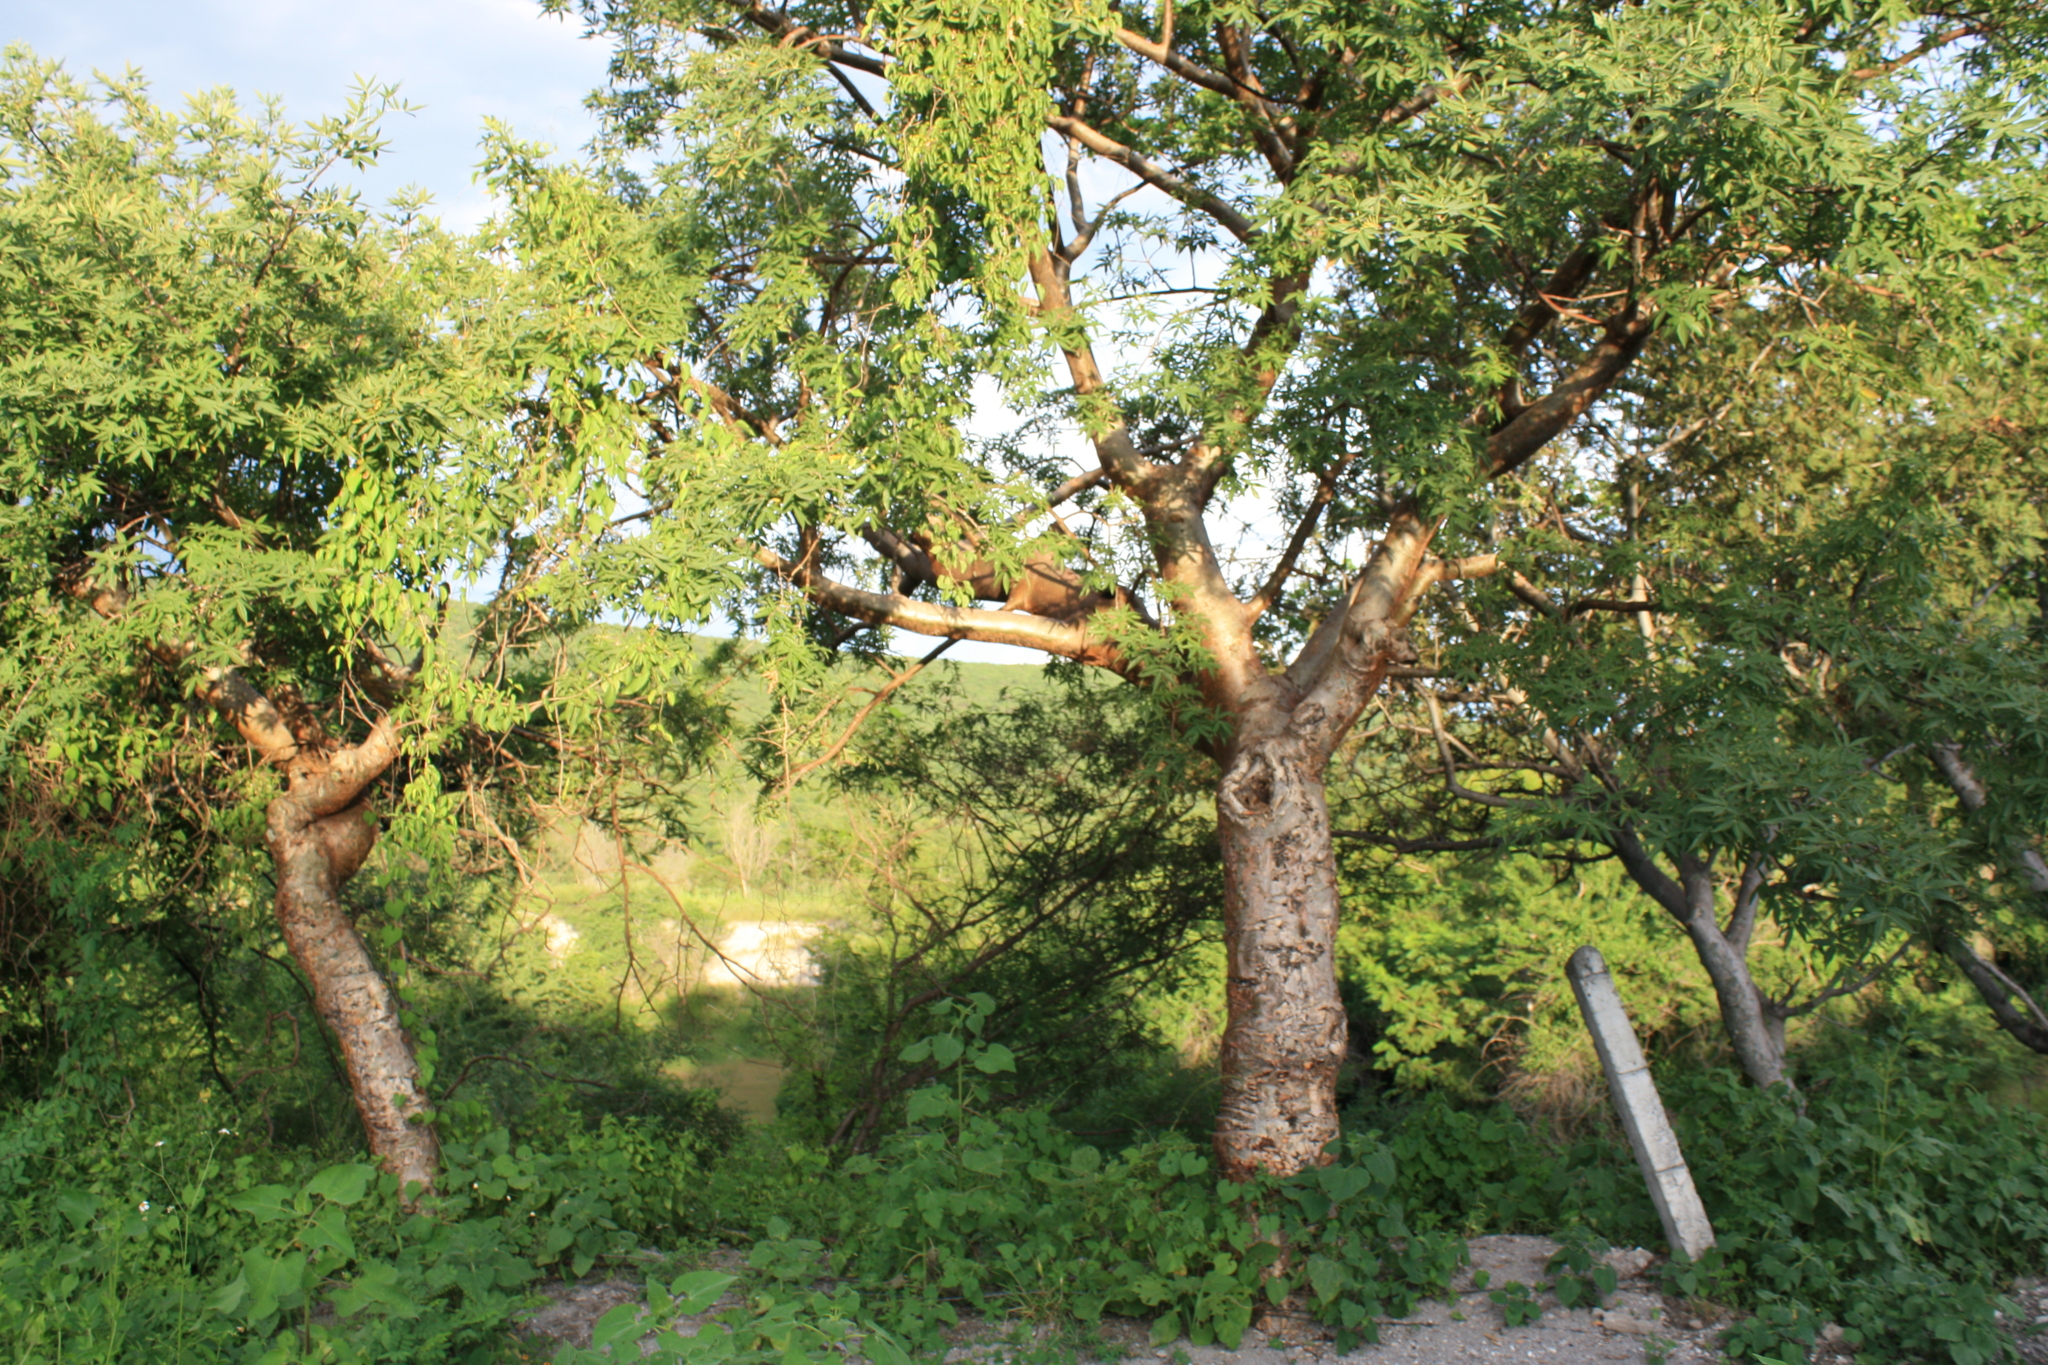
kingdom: Plantae
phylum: Tracheophyta
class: Magnoliopsida
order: Sapindales
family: Burseraceae
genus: Bursera
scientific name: Bursera lancifolia
